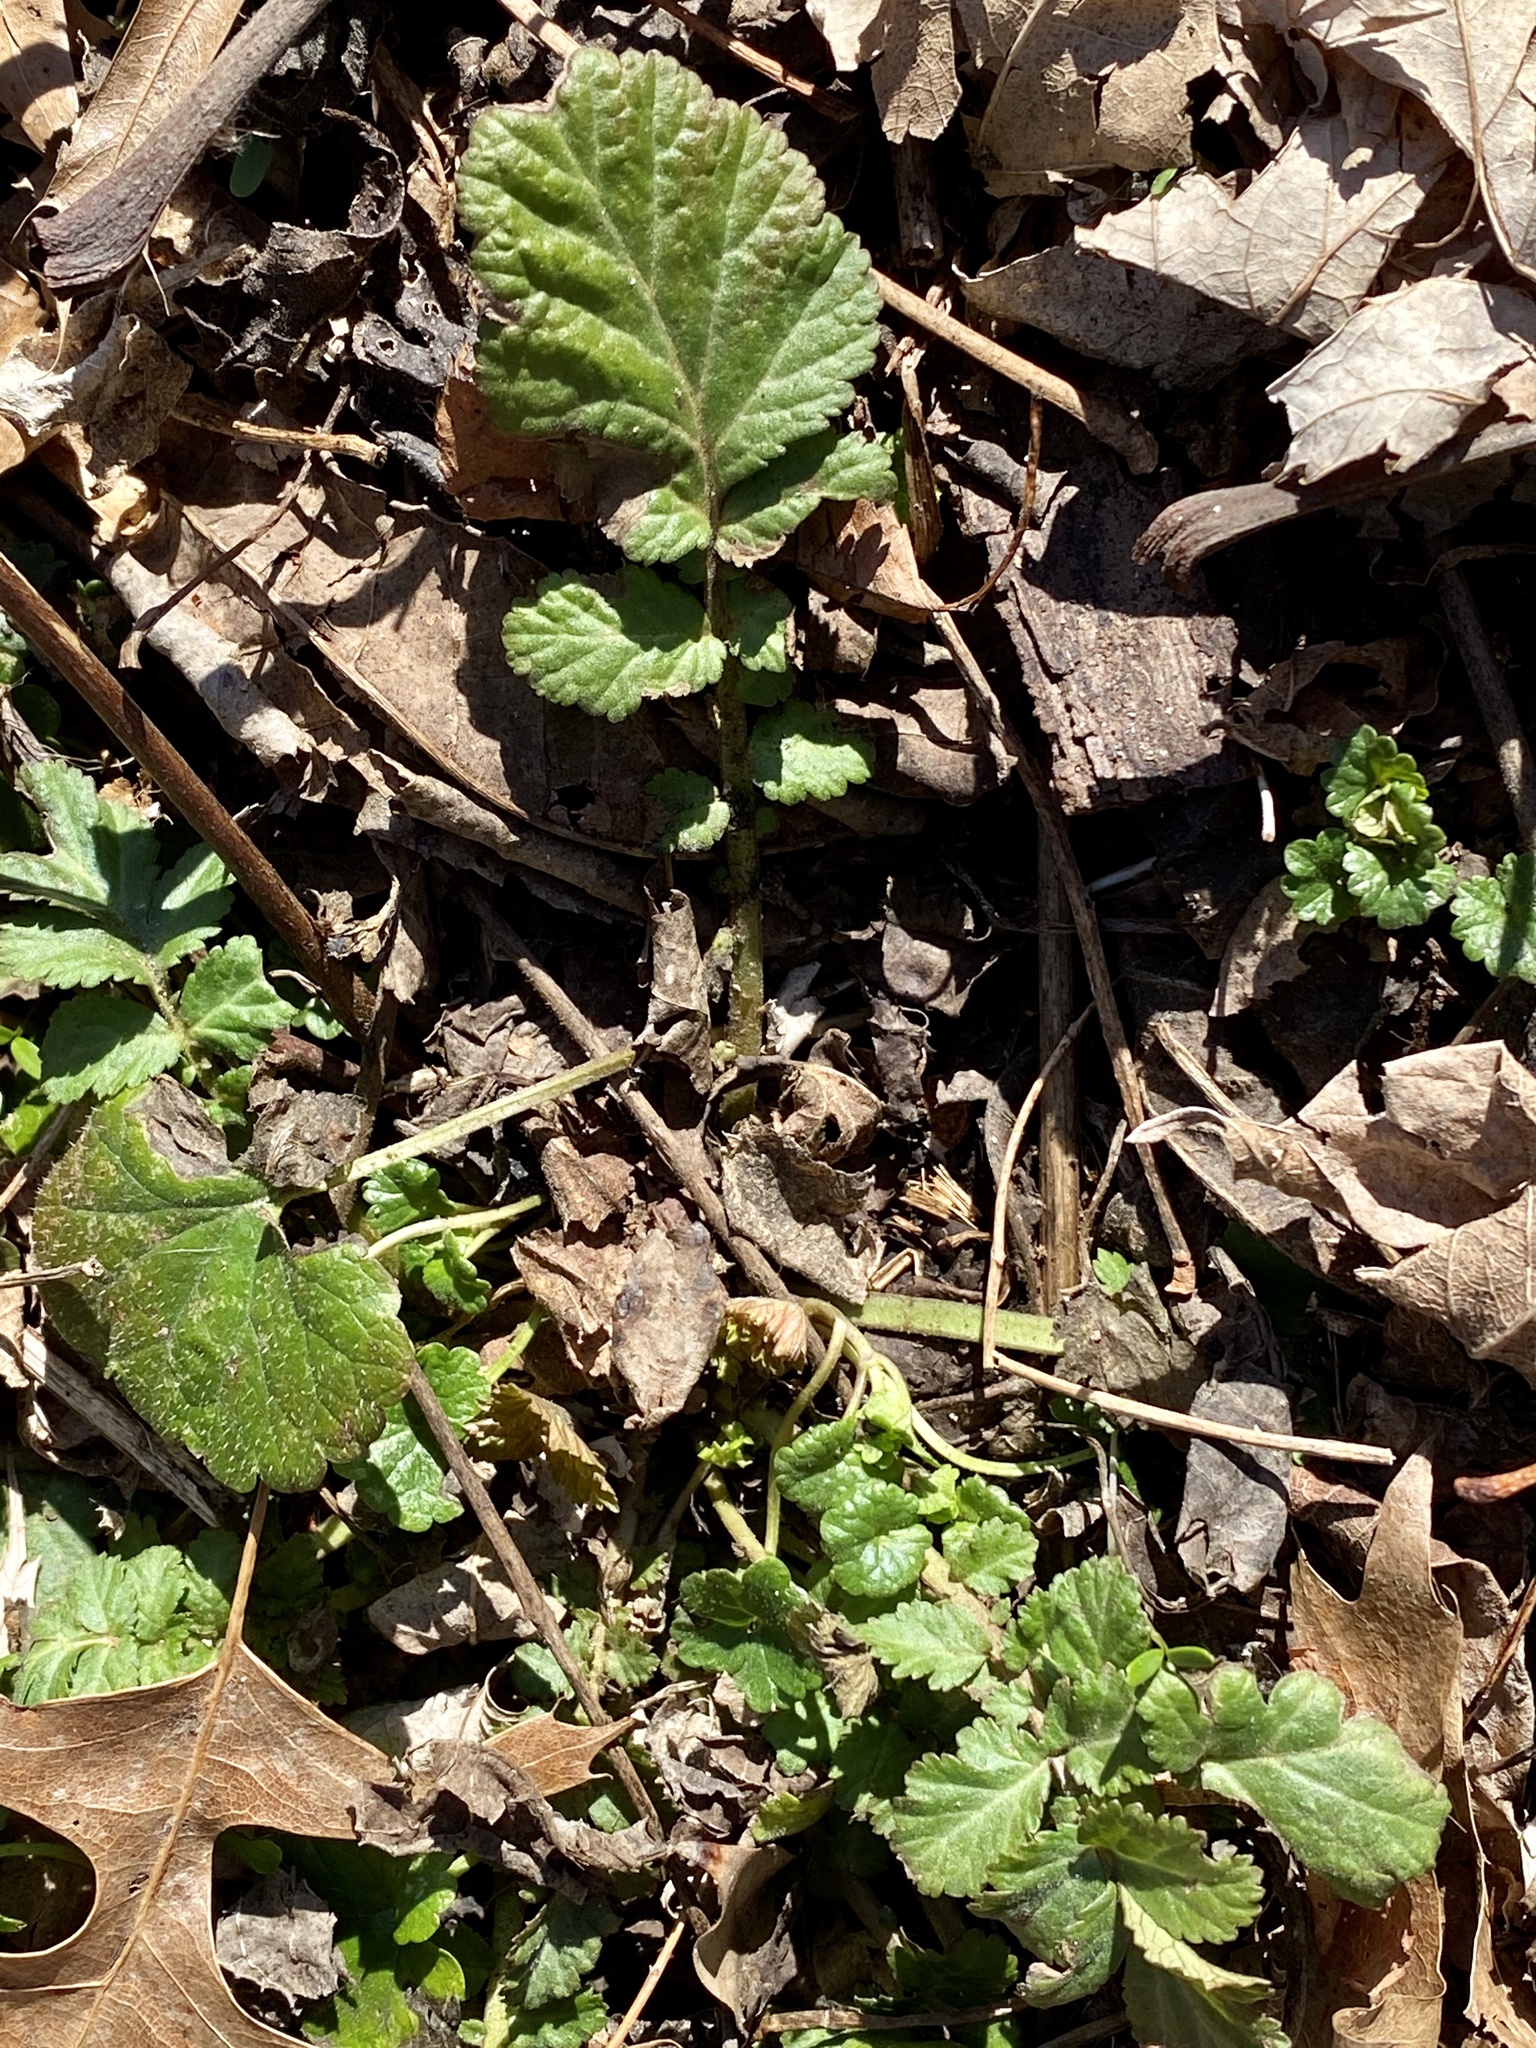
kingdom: Plantae
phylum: Tracheophyta
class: Magnoliopsida
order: Rosales
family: Rosaceae
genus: Geum
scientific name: Geum canadense
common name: White avens
